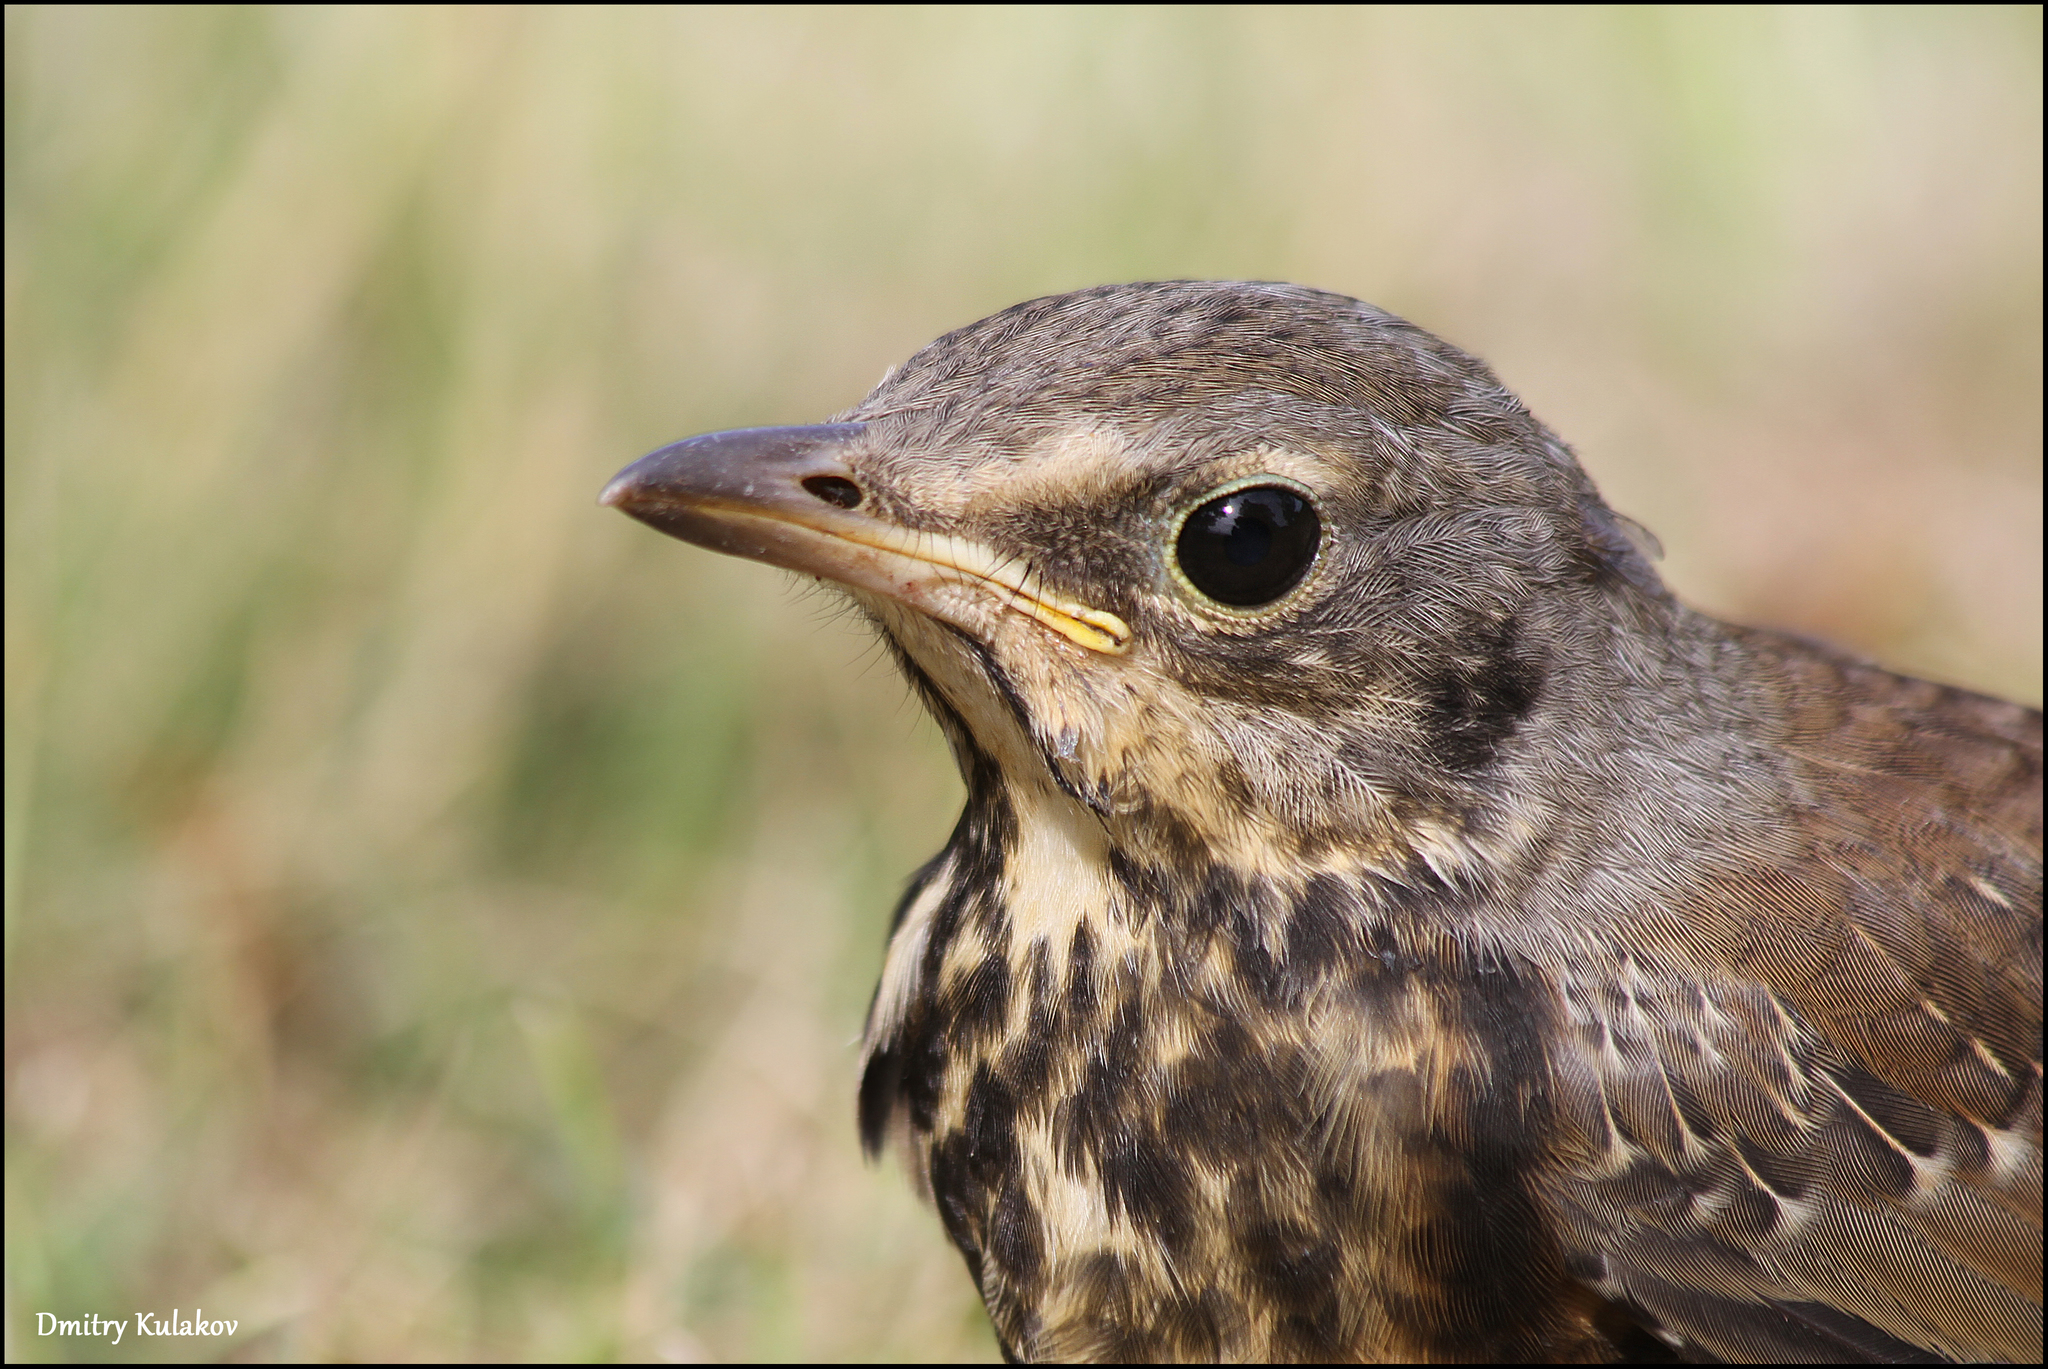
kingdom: Animalia
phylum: Chordata
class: Aves
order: Passeriformes
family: Turdidae
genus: Turdus
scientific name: Turdus pilaris
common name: Fieldfare
